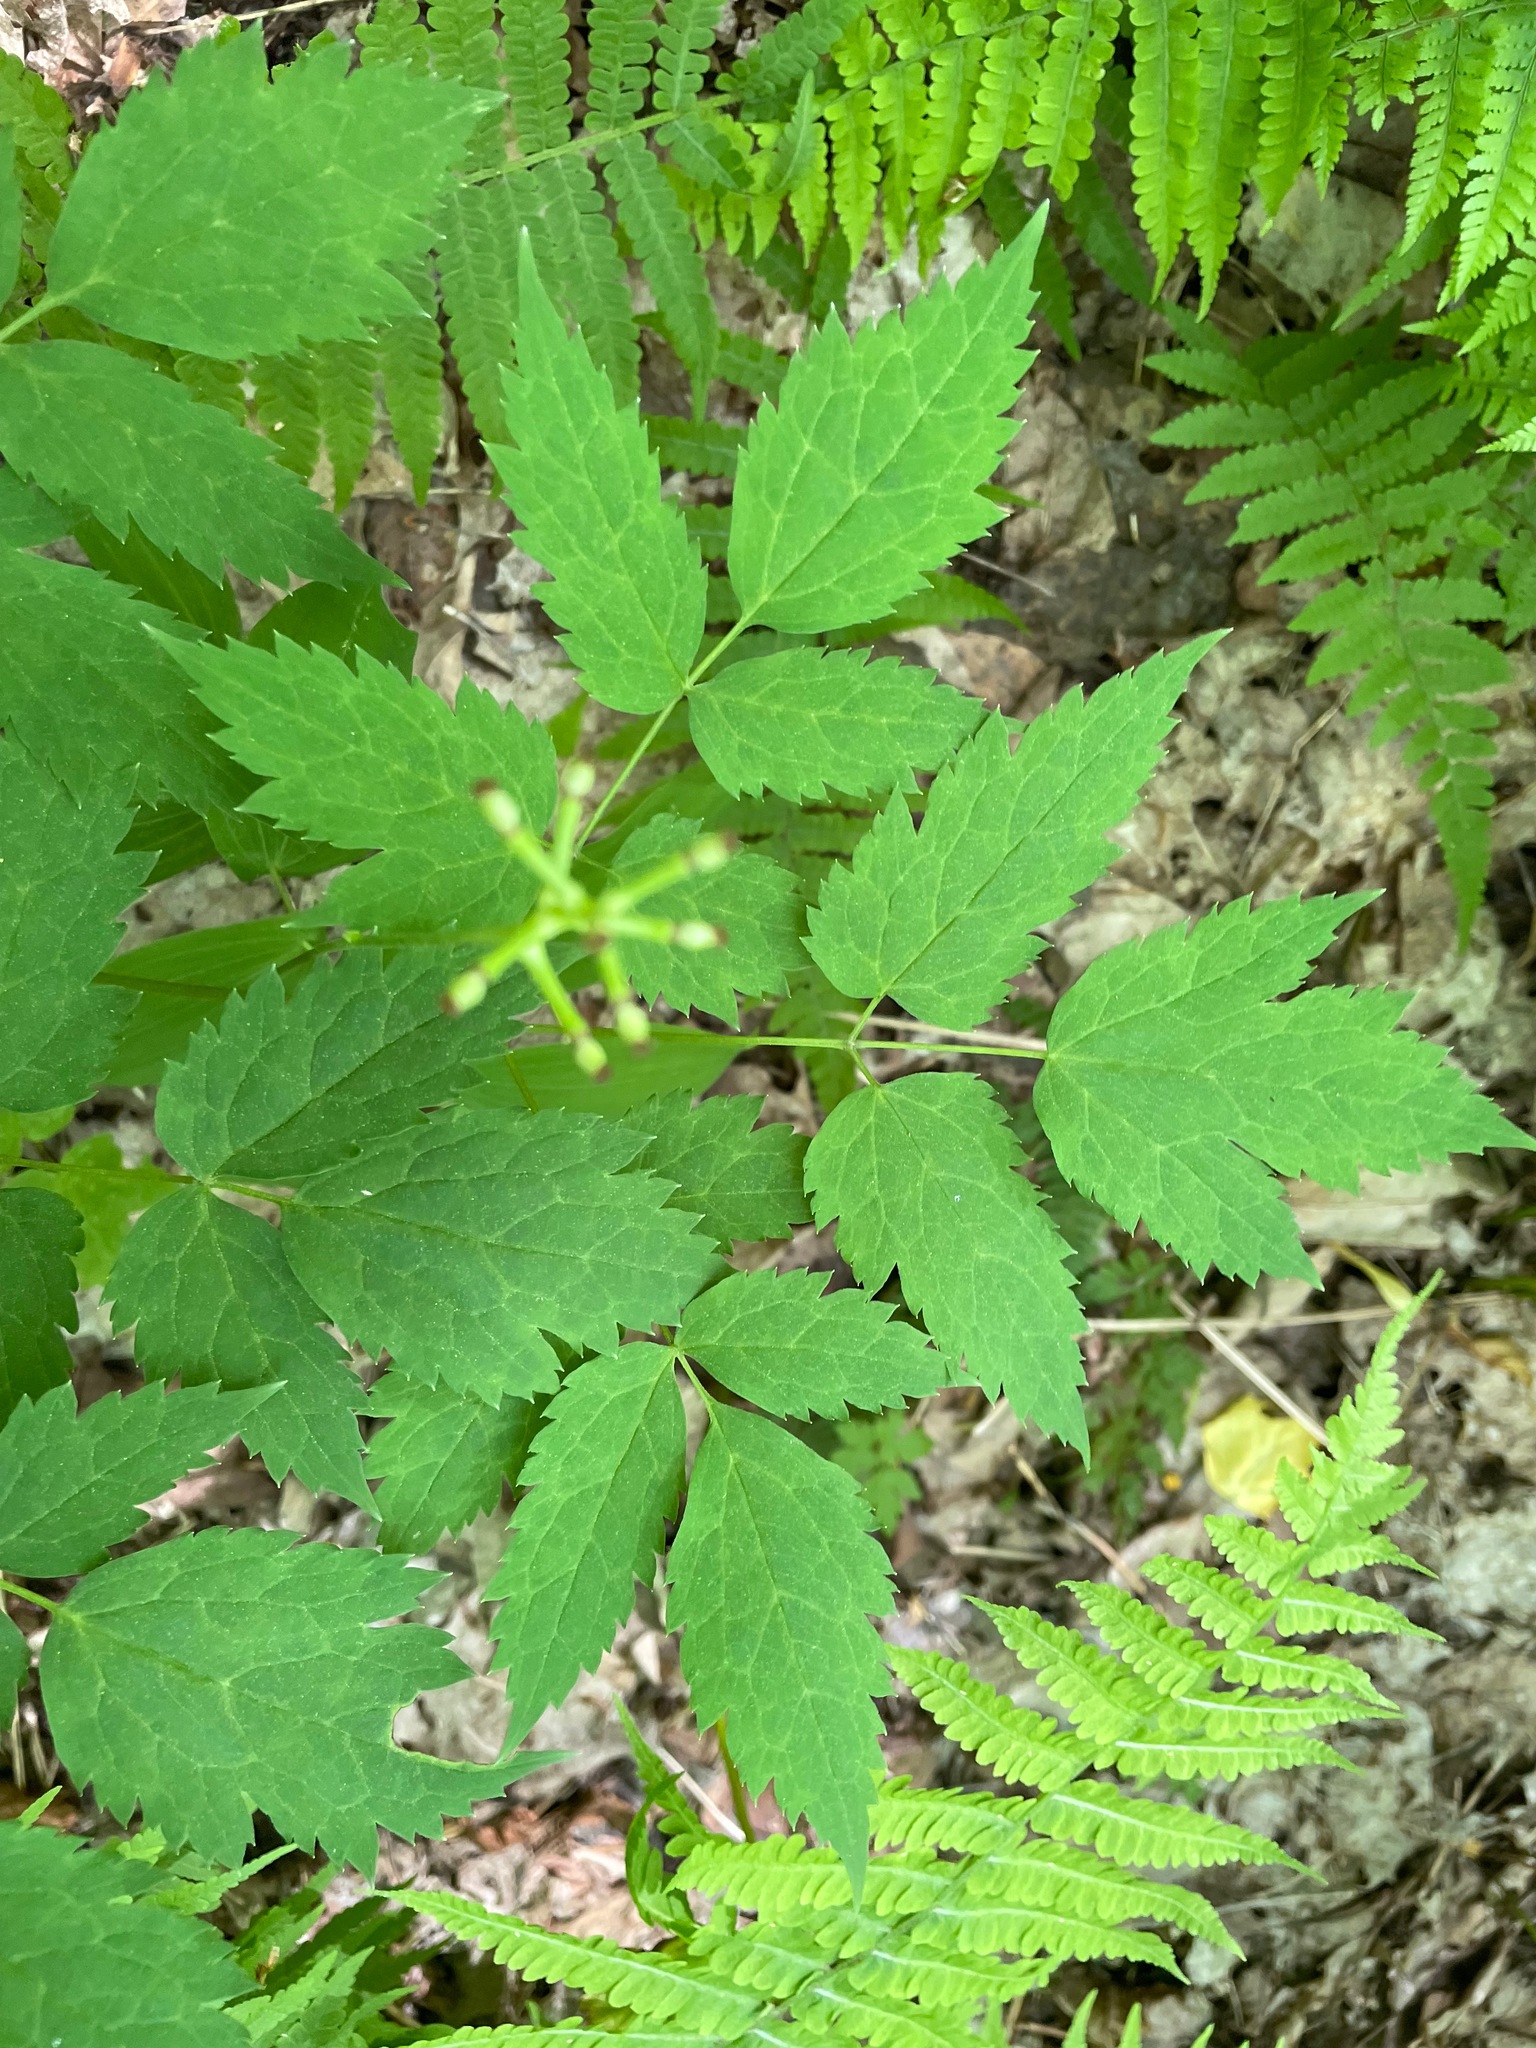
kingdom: Plantae
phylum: Tracheophyta
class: Magnoliopsida
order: Ranunculales
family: Ranunculaceae
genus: Actaea
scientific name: Actaea pachypoda
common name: Doll's-eyes
